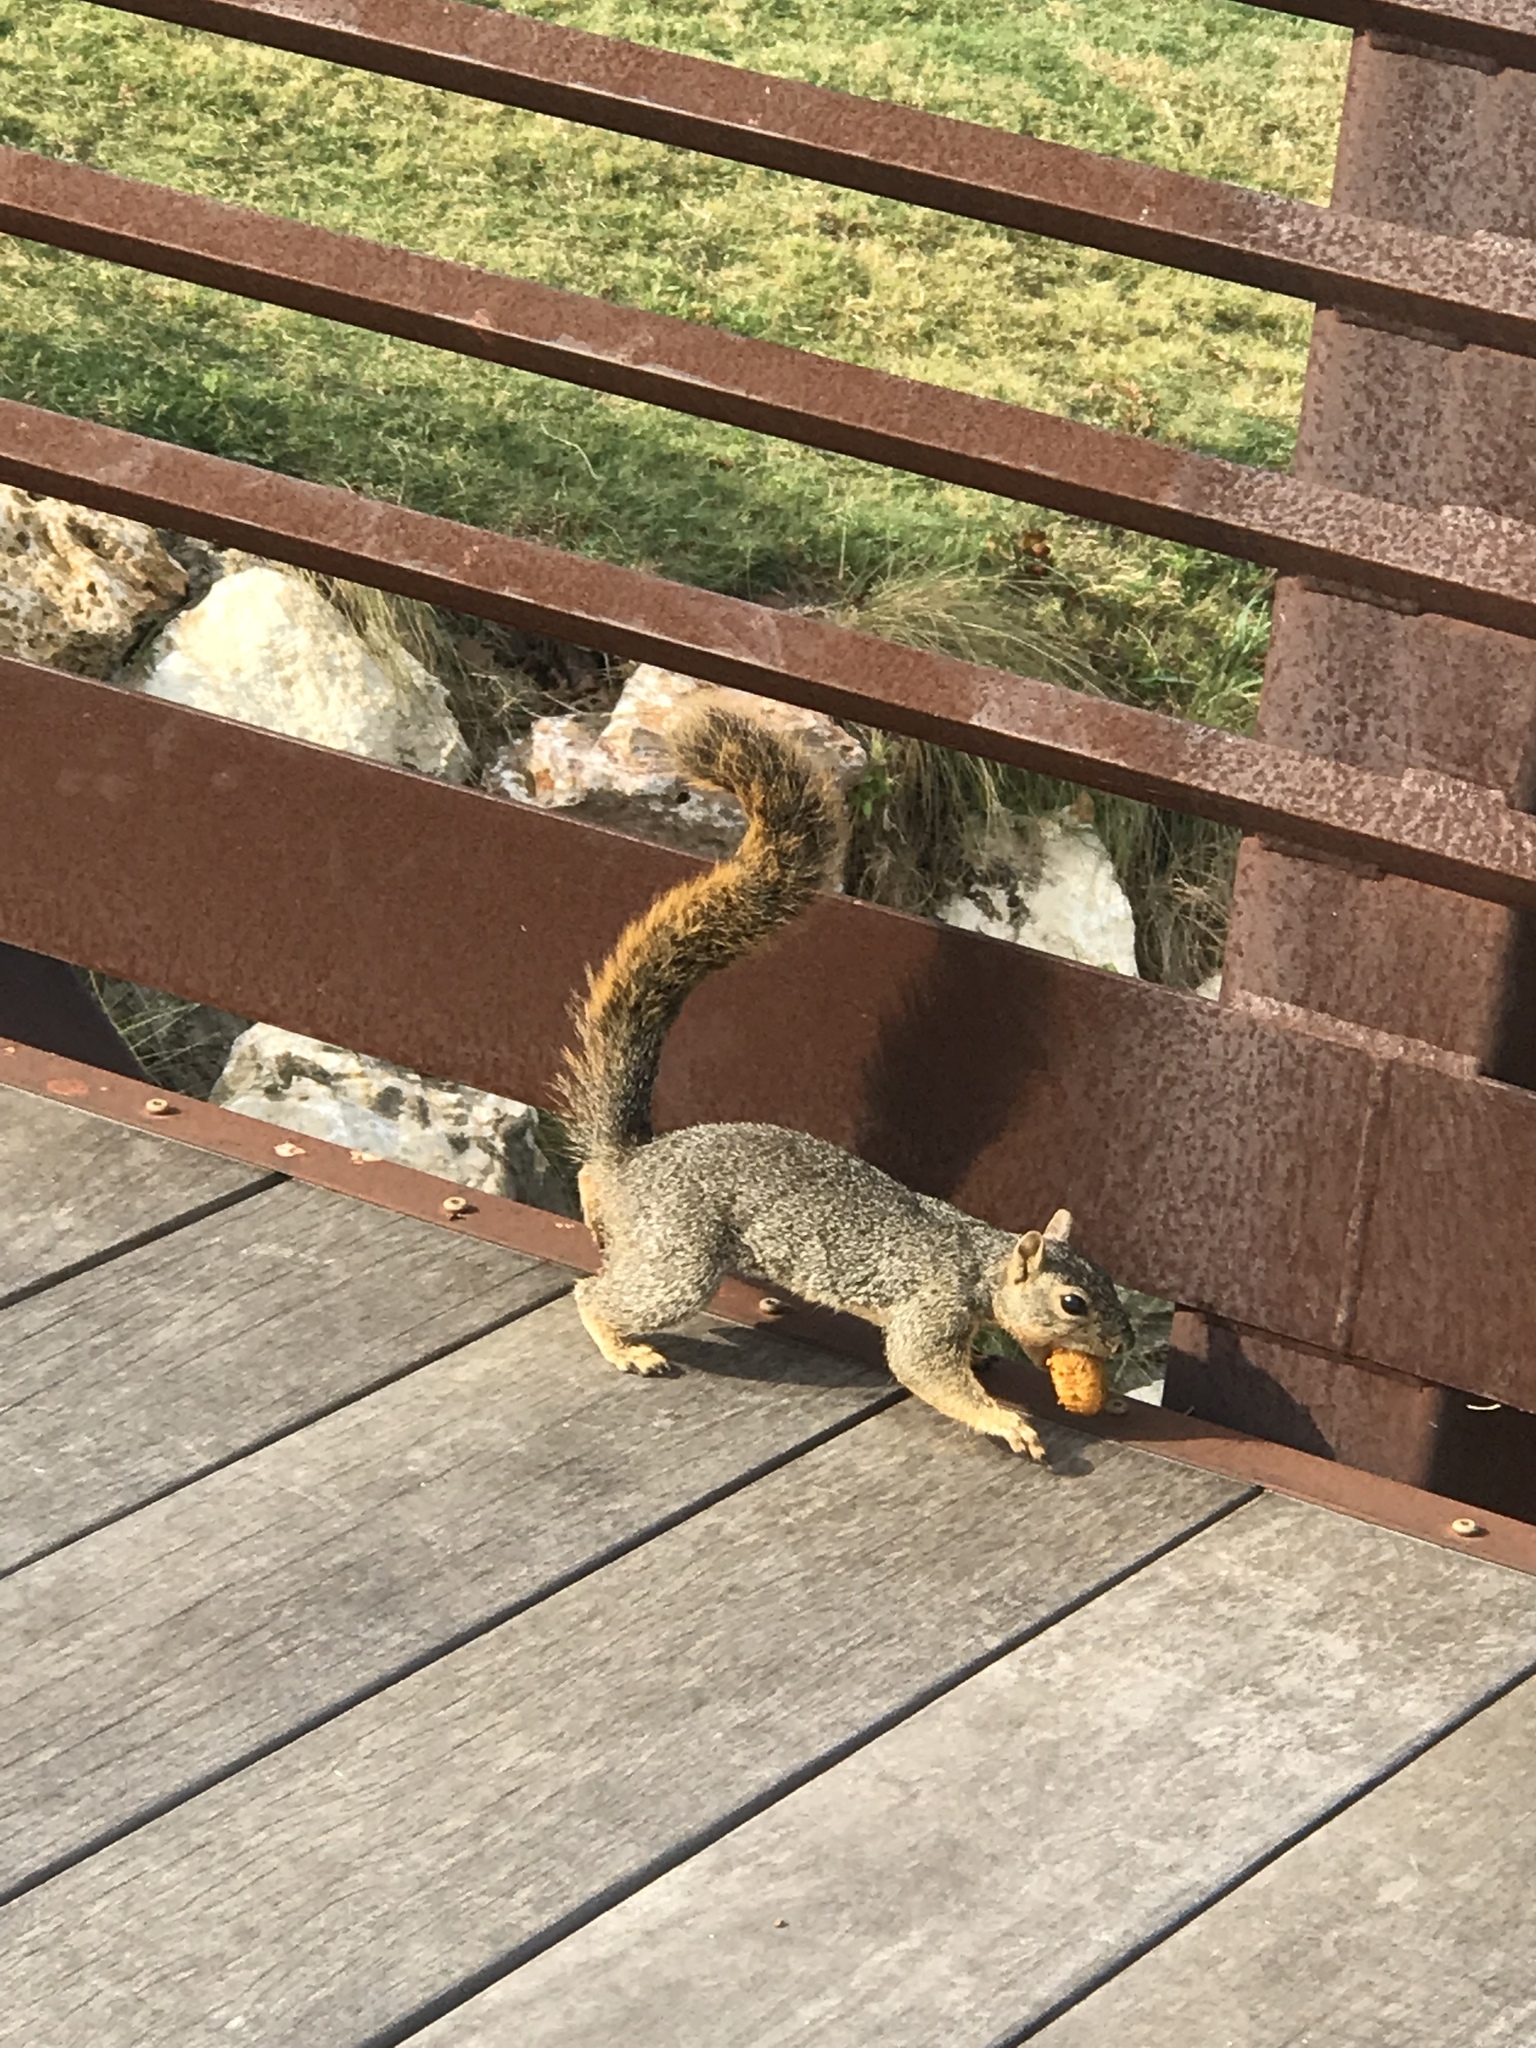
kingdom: Animalia
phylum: Chordata
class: Mammalia
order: Rodentia
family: Sciuridae
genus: Sciurus
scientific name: Sciurus niger
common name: Fox squirrel
